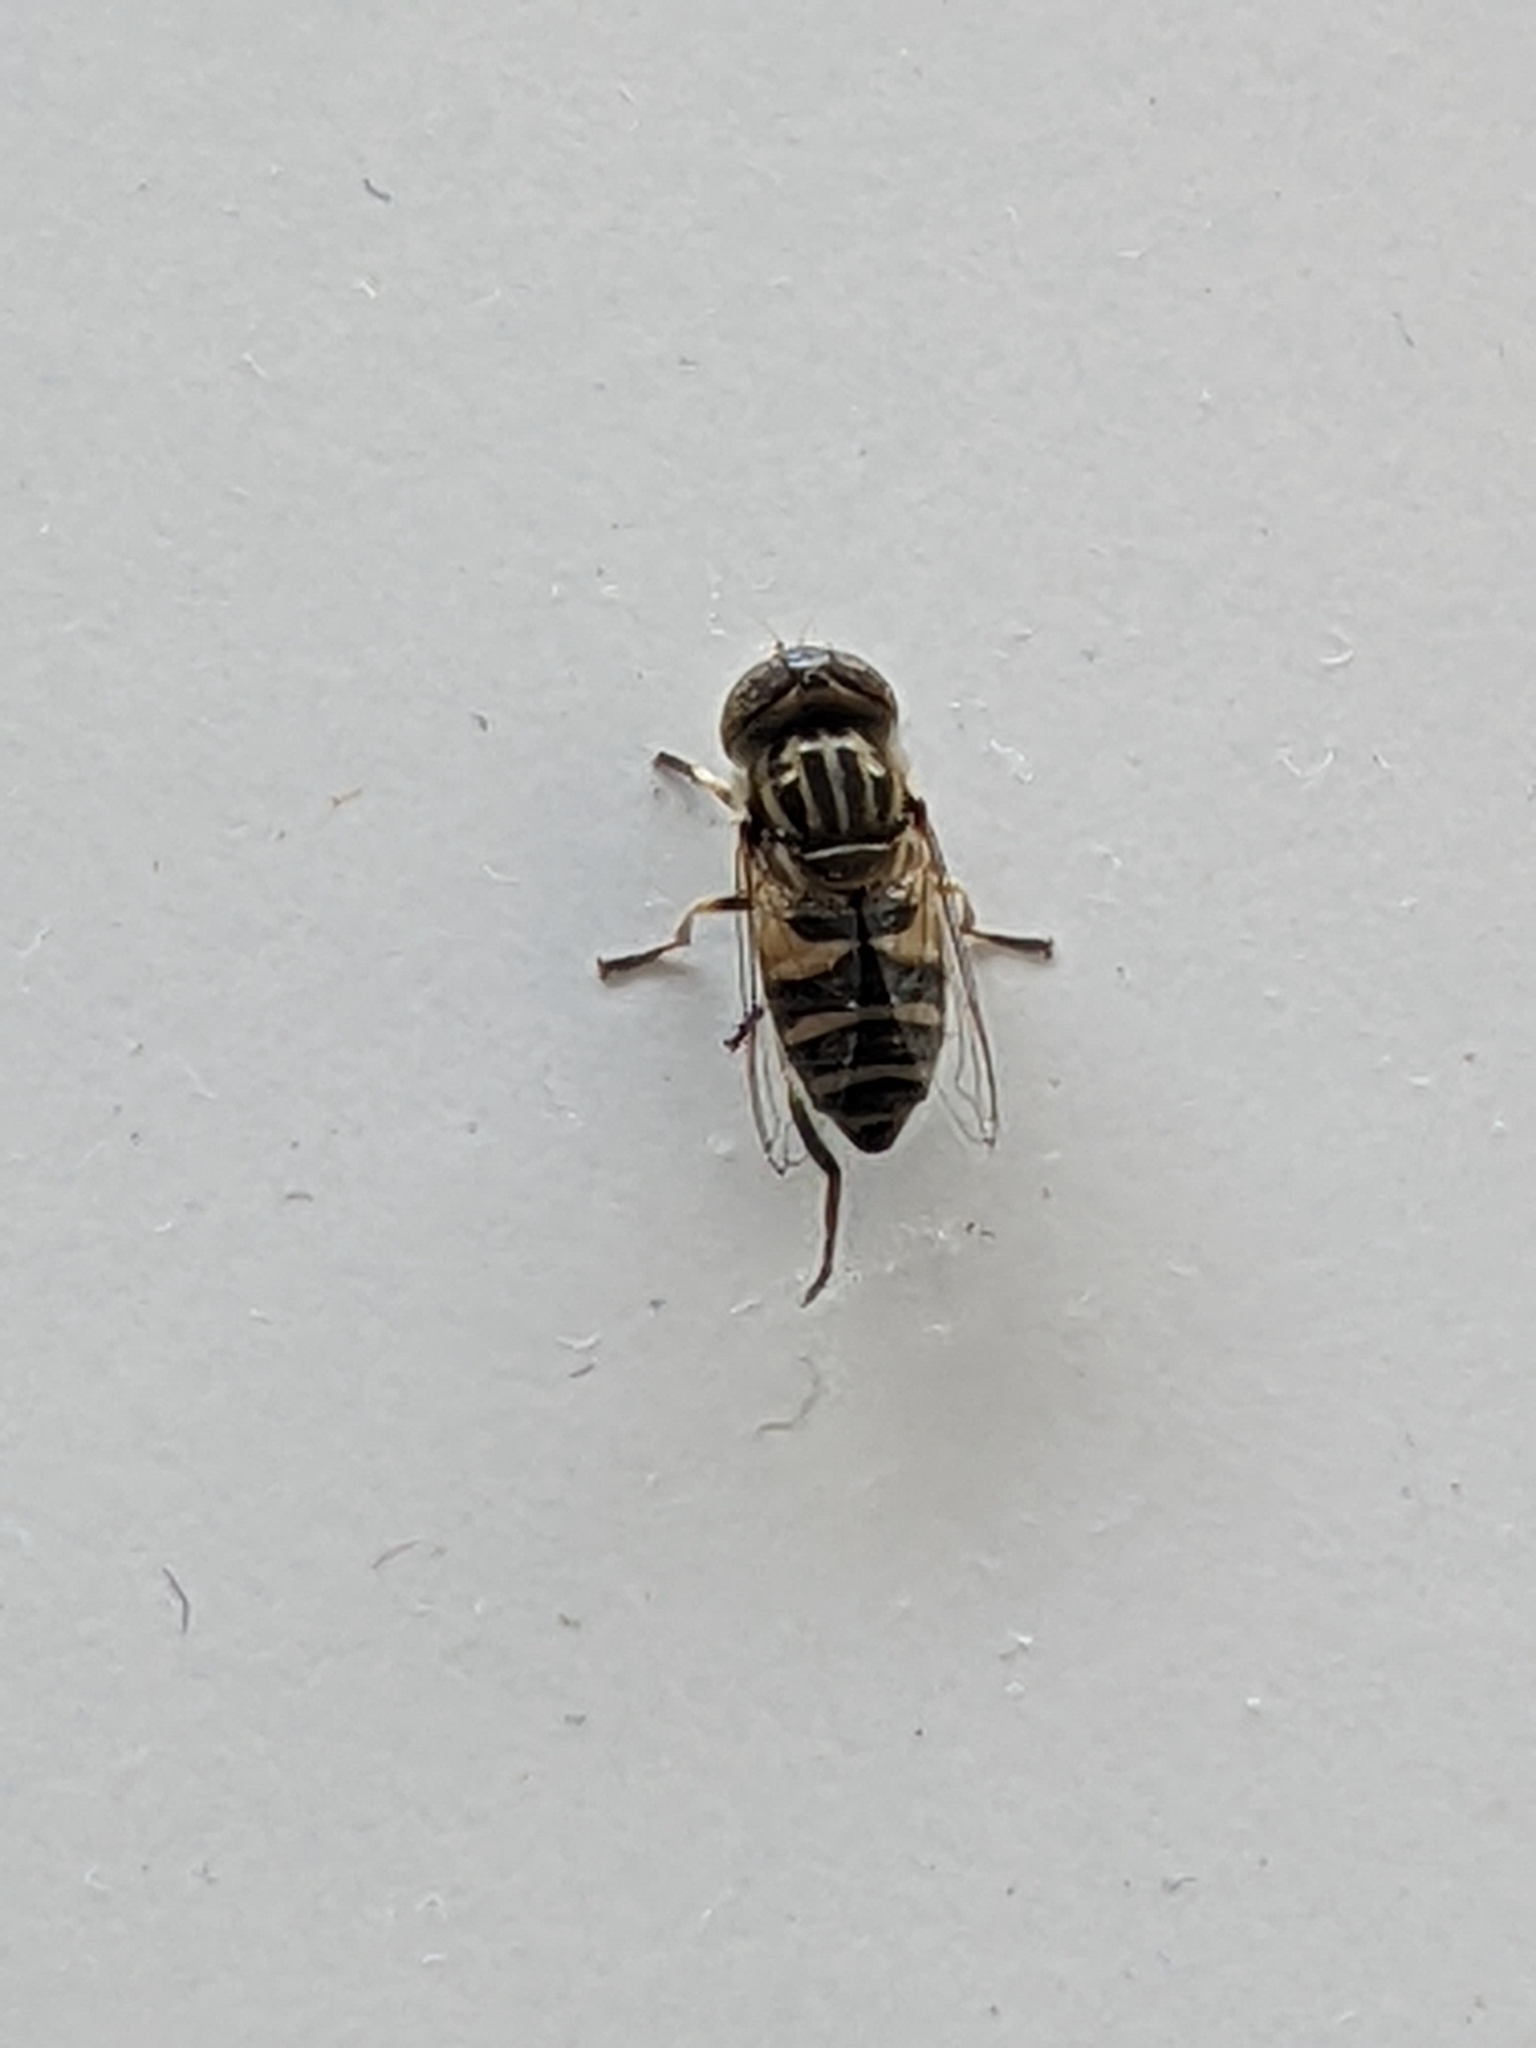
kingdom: Animalia
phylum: Arthropoda
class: Insecta
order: Diptera
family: Syrphidae
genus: Eristalinus
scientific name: Eristalinus megacephalus
